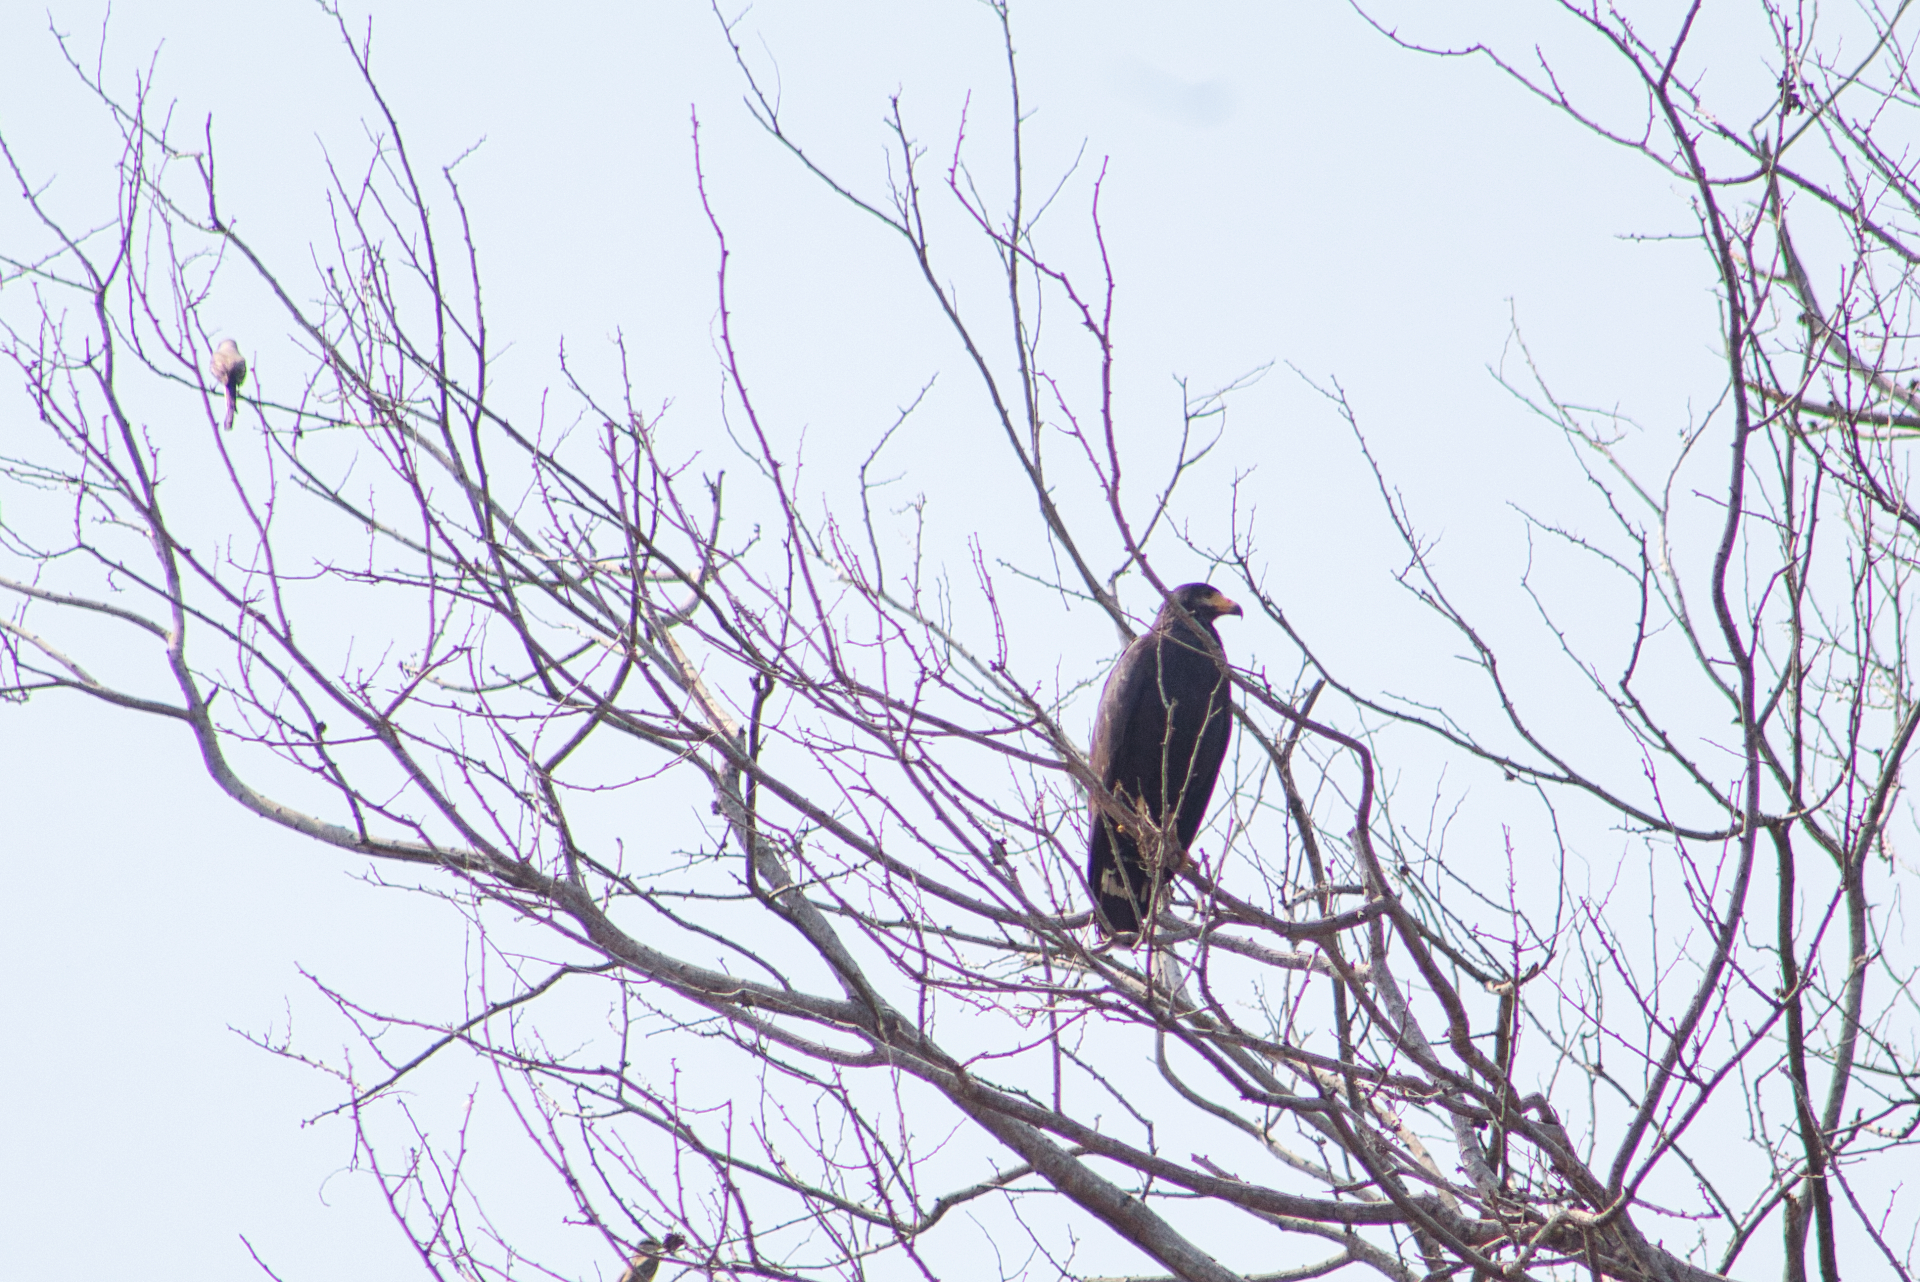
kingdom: Animalia
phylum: Chordata
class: Aves
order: Accipitriformes
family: Accipitridae
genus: Buteogallus
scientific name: Buteogallus anthracinus
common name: Common black hawk
